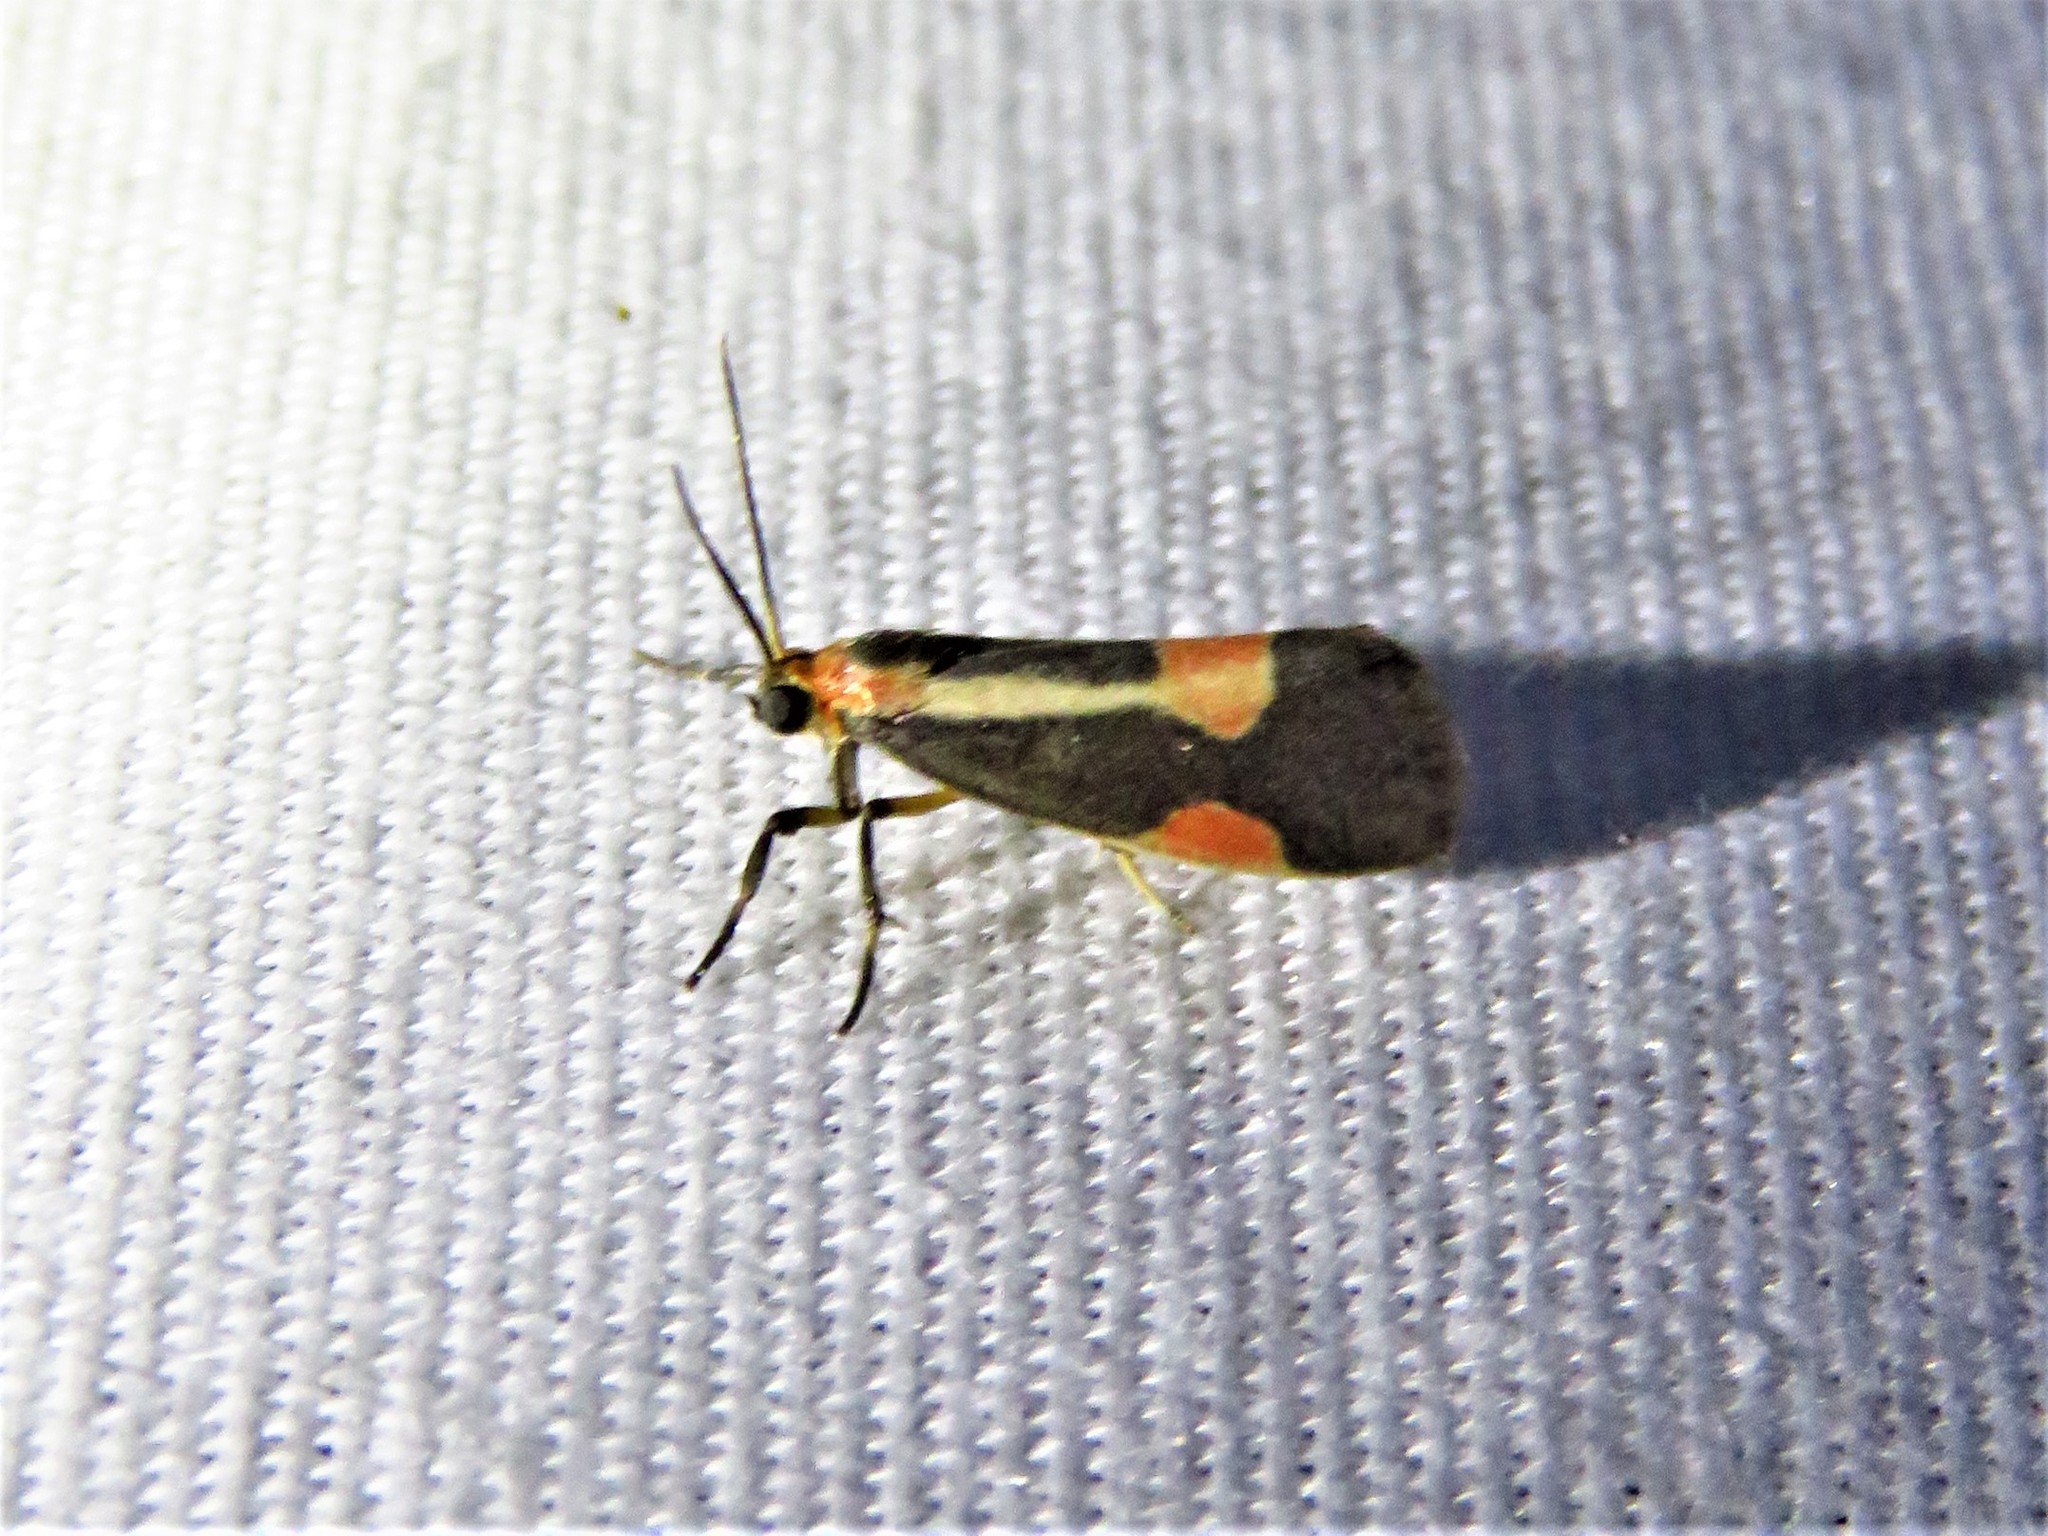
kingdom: Animalia
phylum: Arthropoda
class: Insecta
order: Lepidoptera
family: Erebidae
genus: Cisthene
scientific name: Cisthene packardii
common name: Packard's lichen moth
